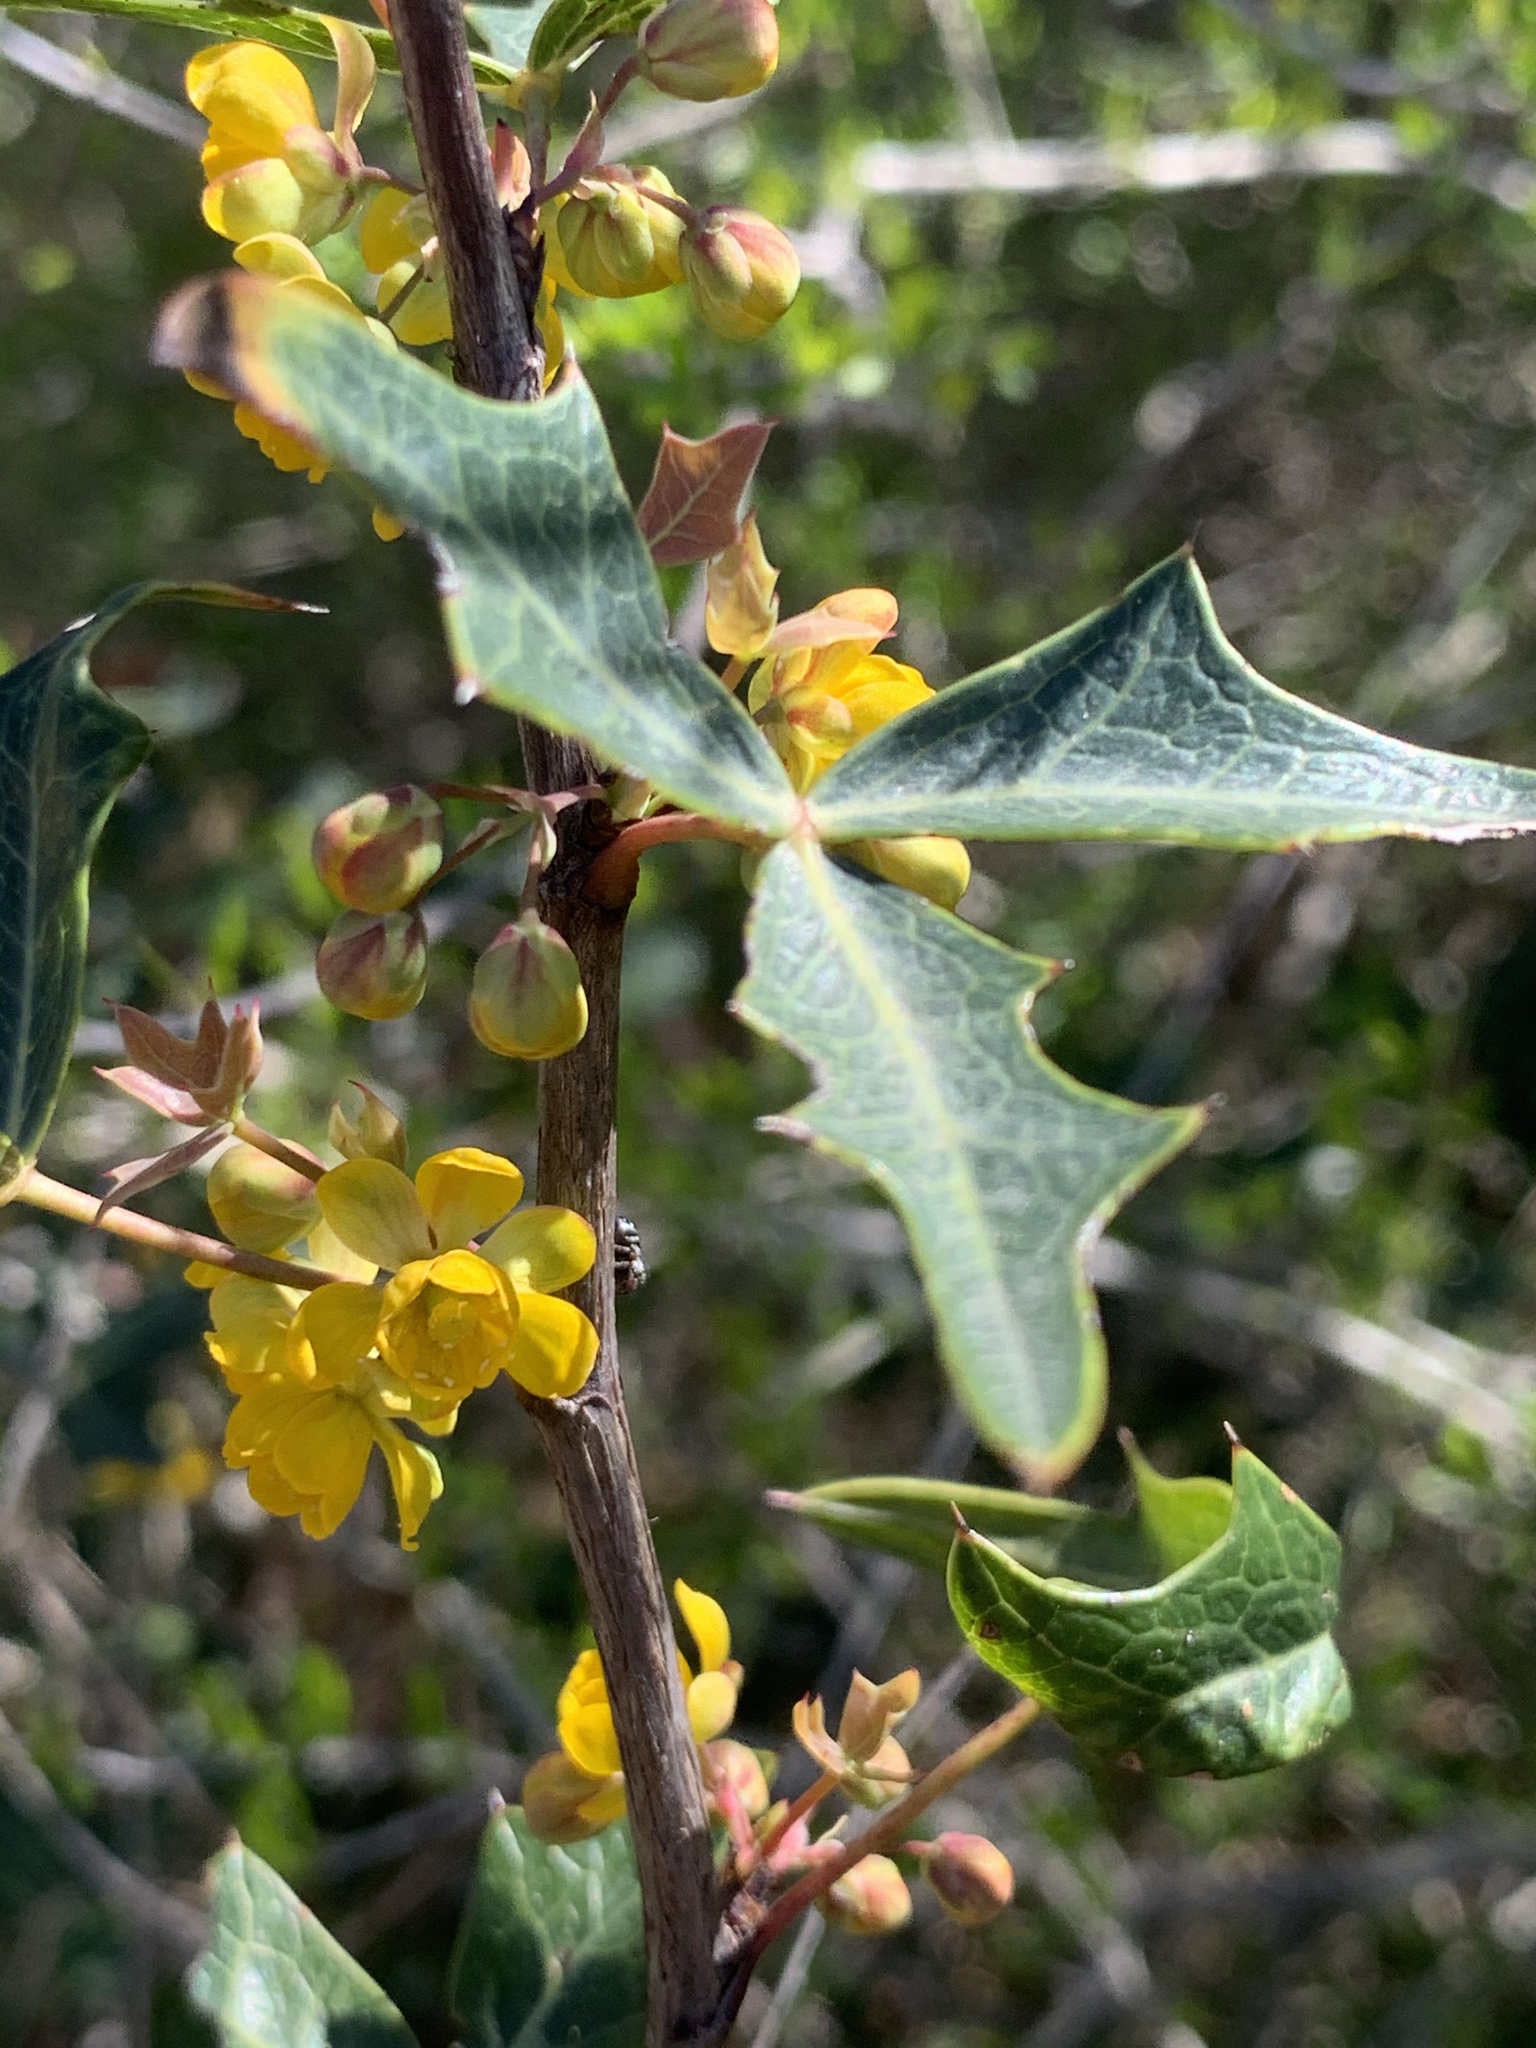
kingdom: Plantae
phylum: Tracheophyta
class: Magnoliopsida
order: Ranunculales
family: Berberidaceae
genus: Alloberberis
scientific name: Alloberberis trifoliolata
